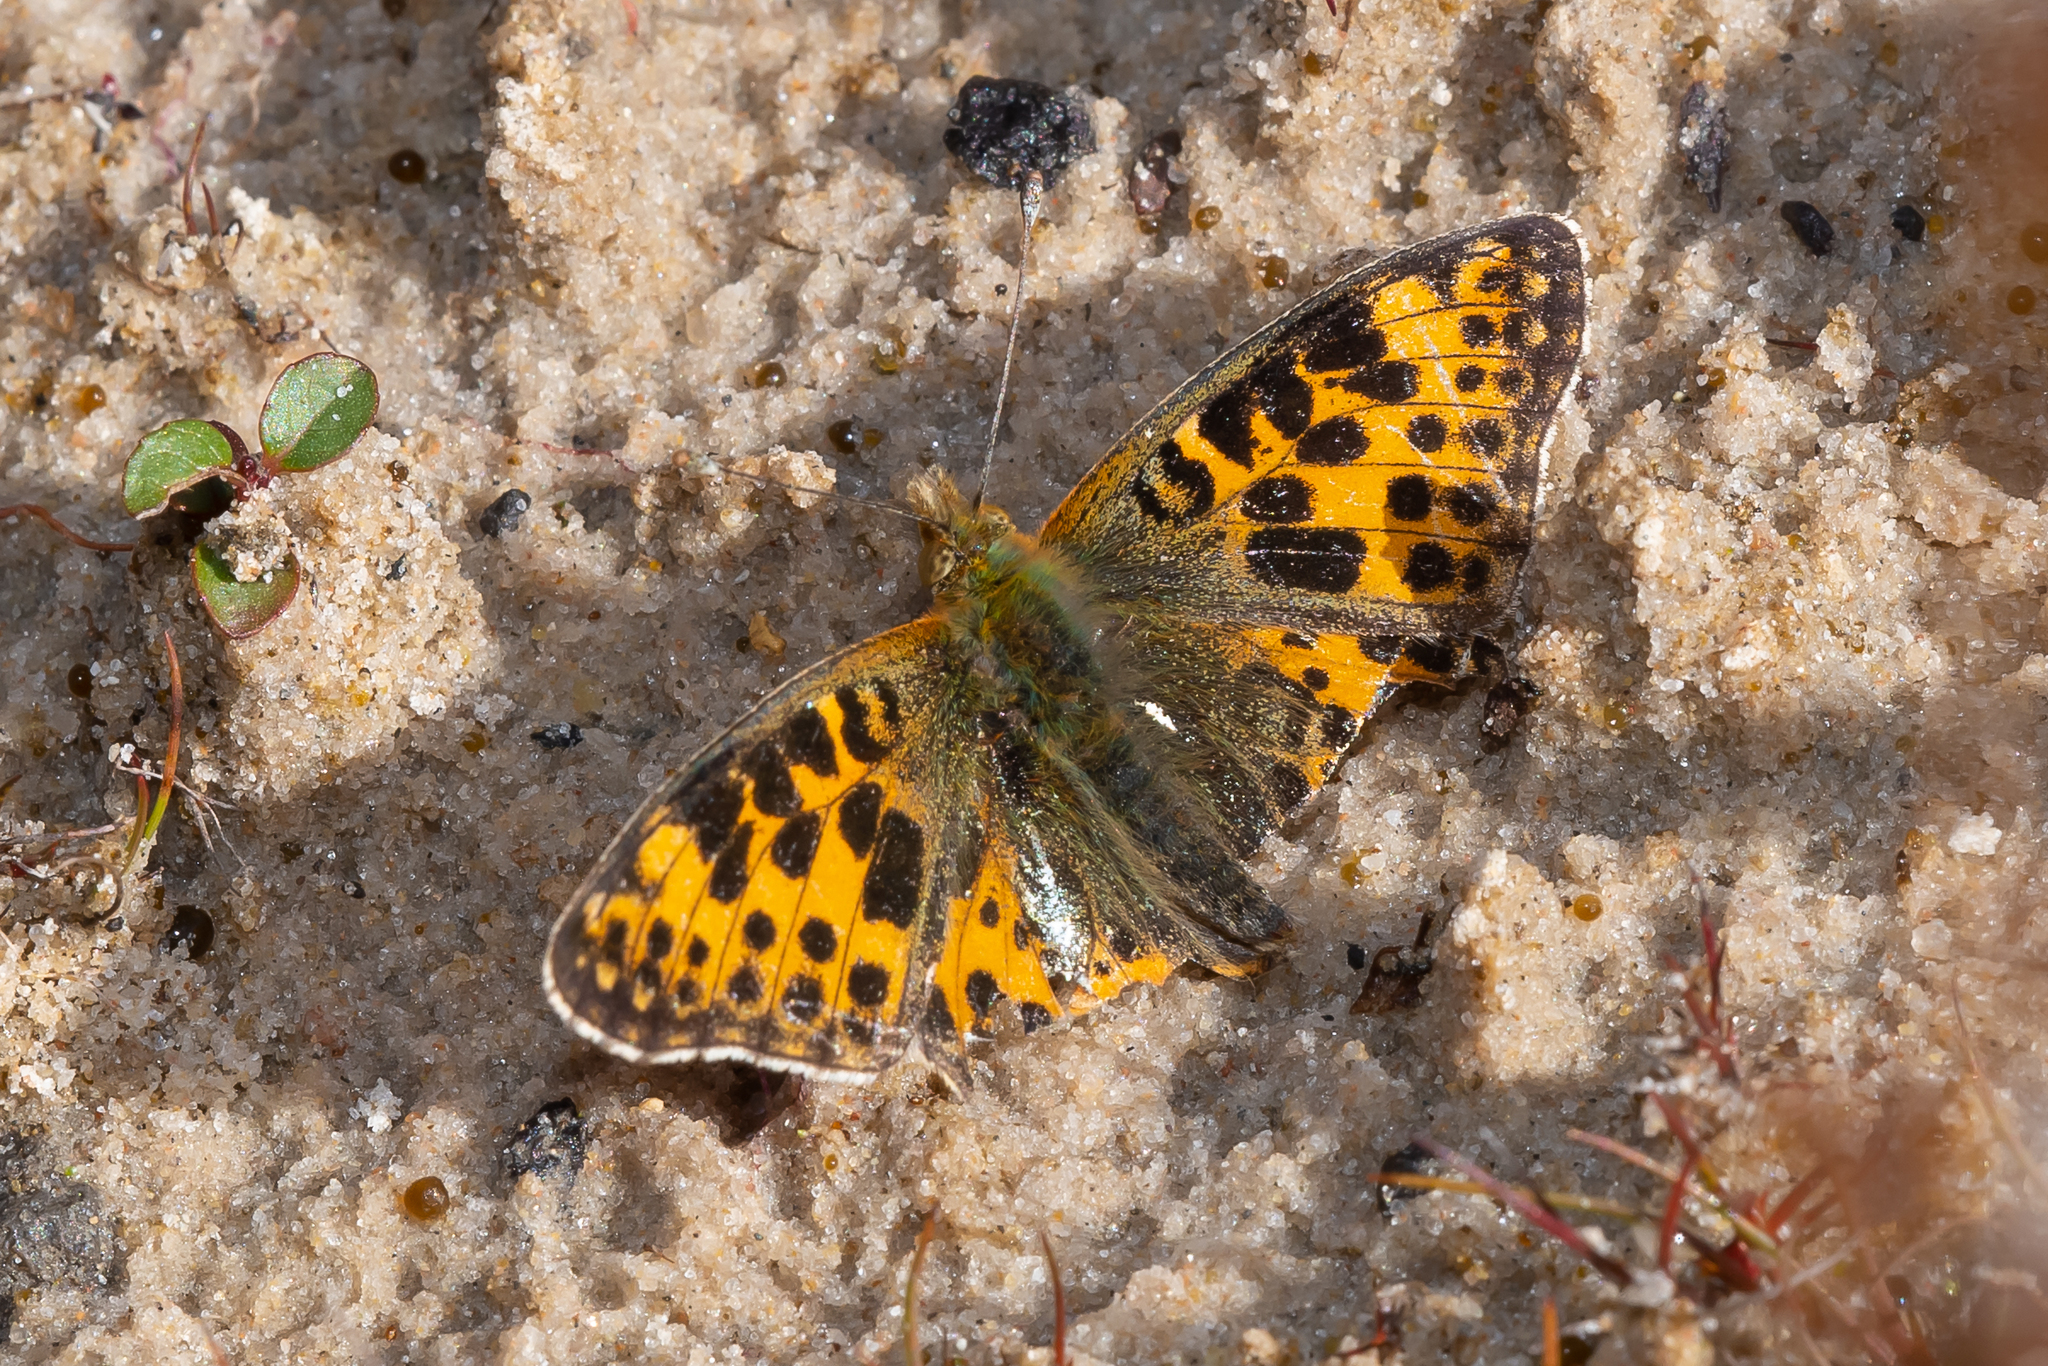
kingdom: Animalia
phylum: Arthropoda
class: Insecta
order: Lepidoptera
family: Nymphalidae
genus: Issoria
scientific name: Issoria lathonia
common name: Queen of spain fritillary
